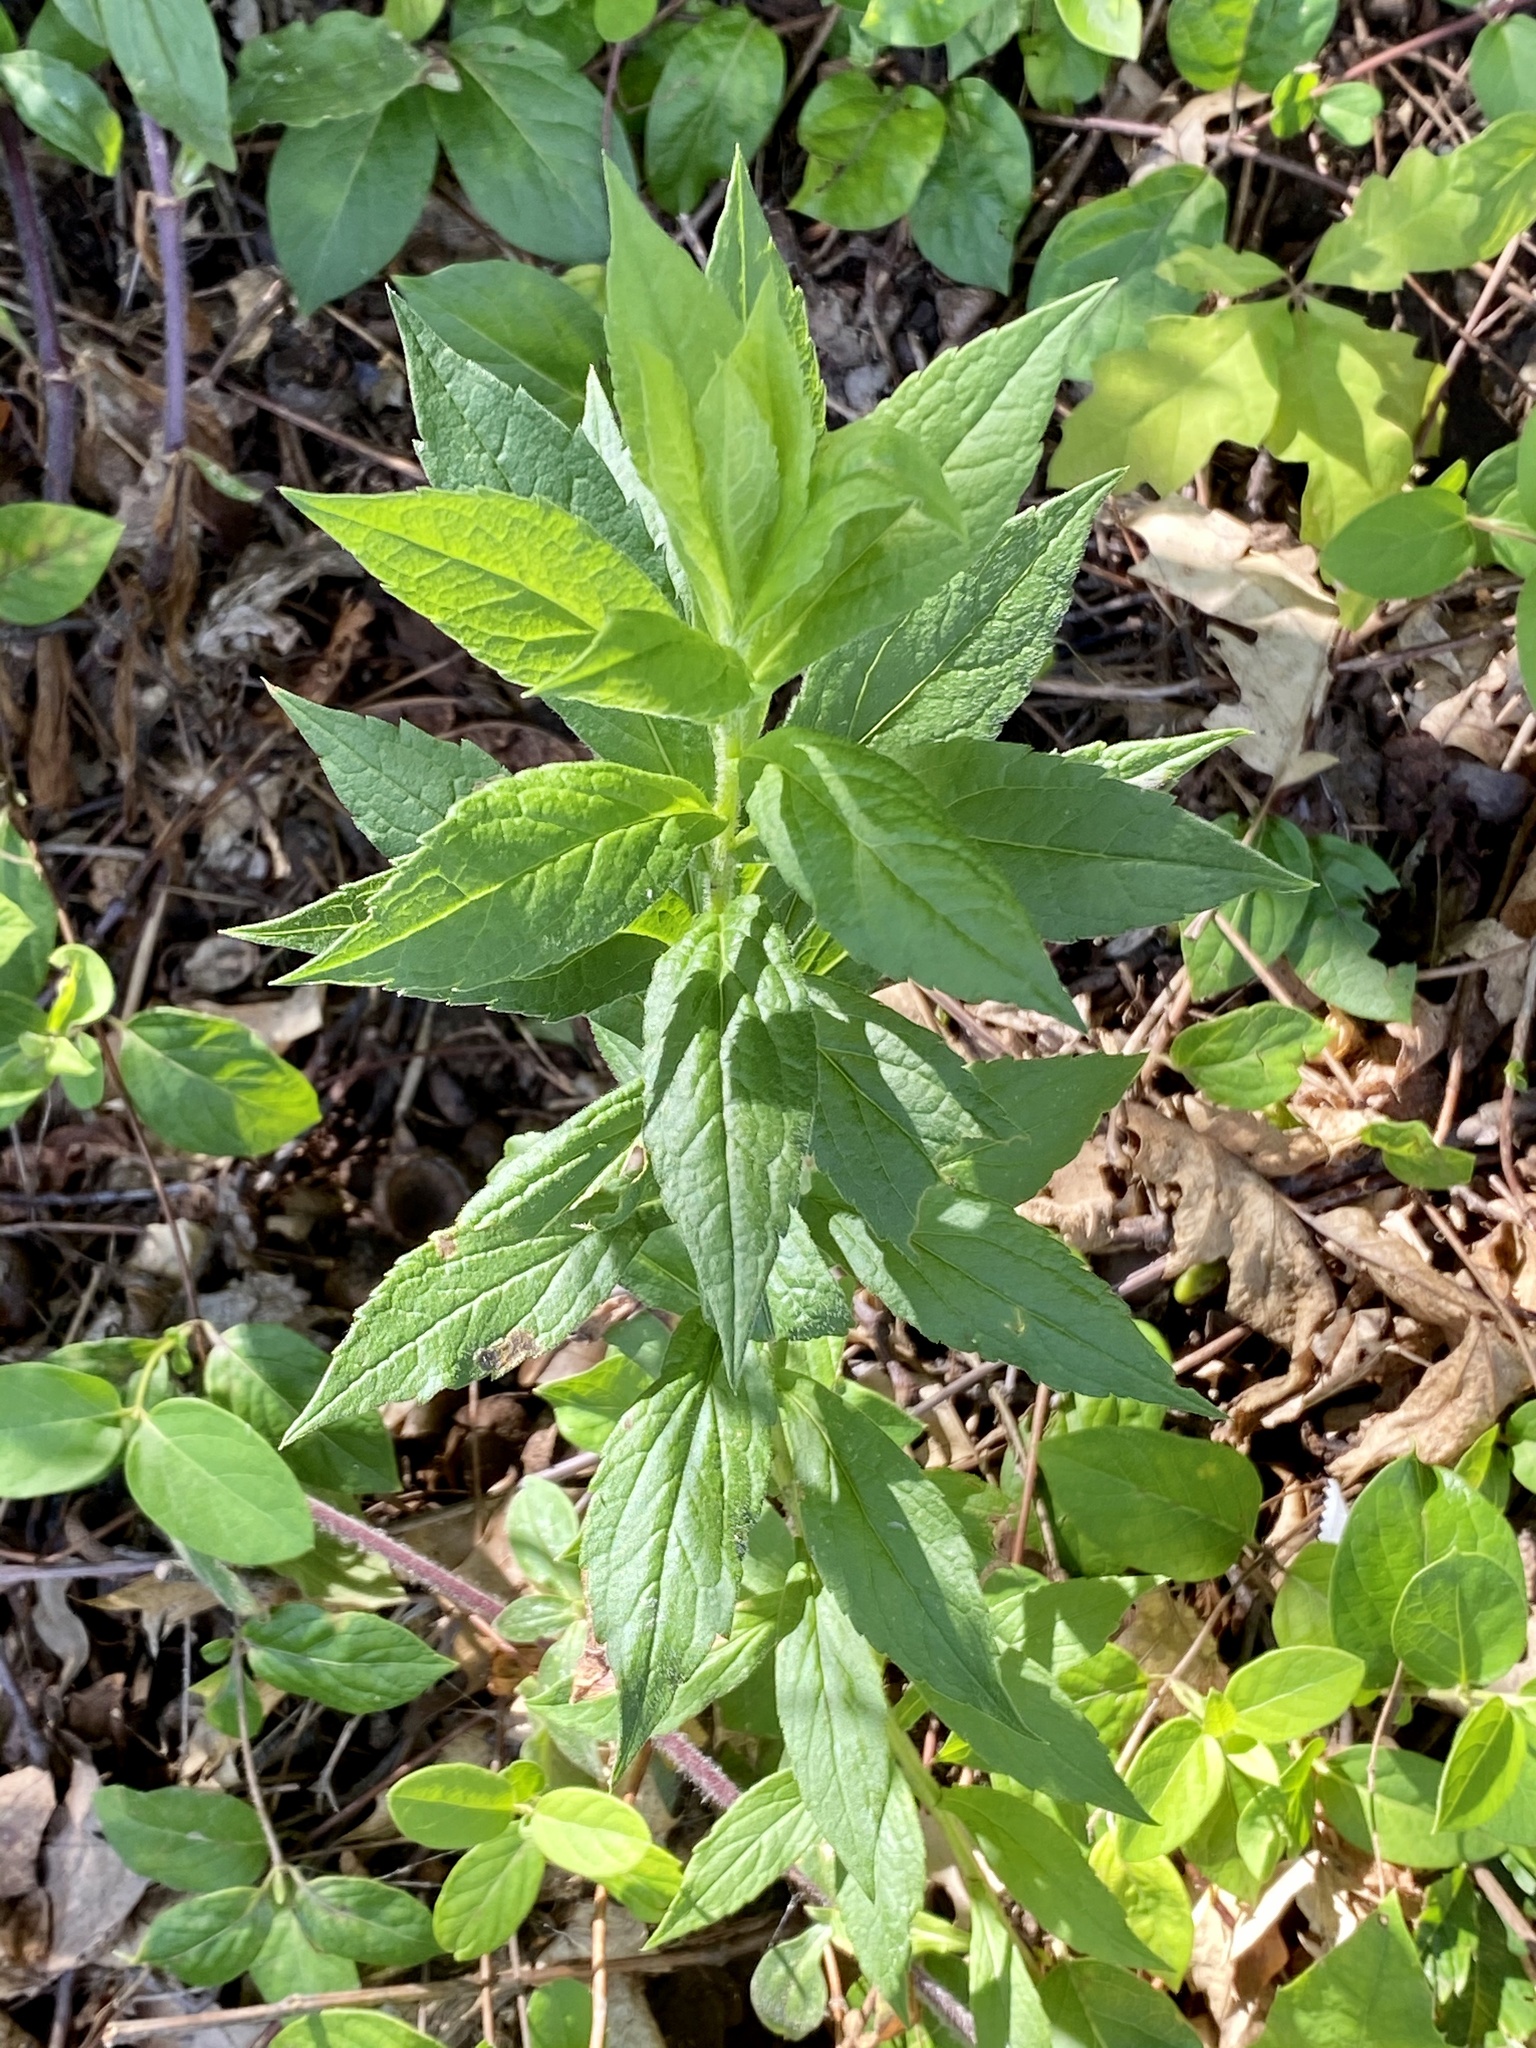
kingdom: Plantae
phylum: Tracheophyta
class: Magnoliopsida
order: Asterales
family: Asteraceae
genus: Solidago
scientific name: Solidago rugosa
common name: Rough-stemmed goldenrod
